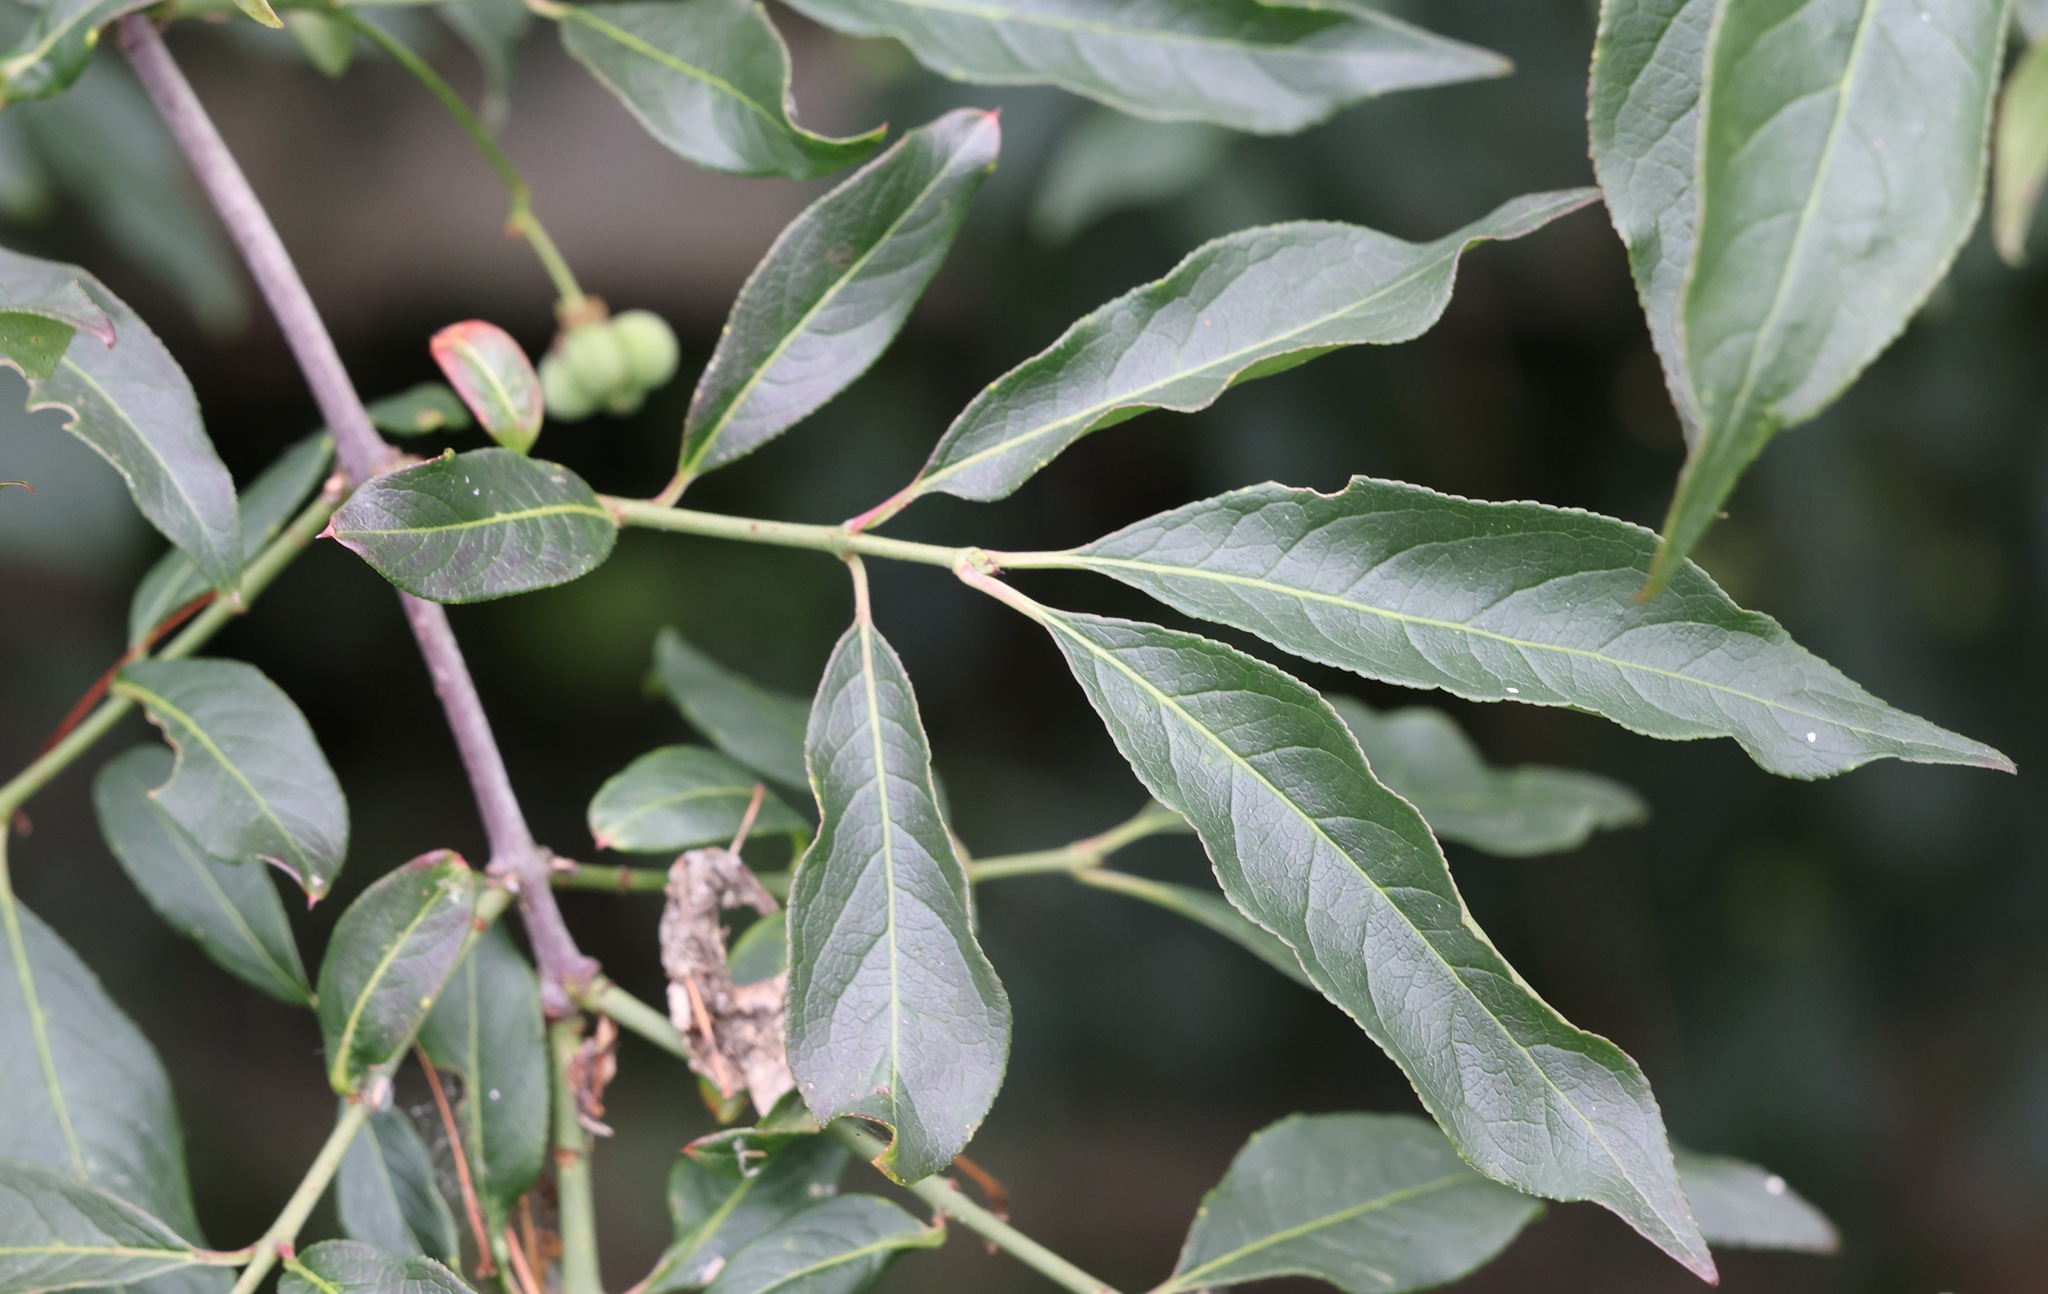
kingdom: Plantae
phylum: Tracheophyta
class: Magnoliopsida
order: Celastrales
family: Celastraceae
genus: Euonymus
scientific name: Euonymus europaeus
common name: Spindle
